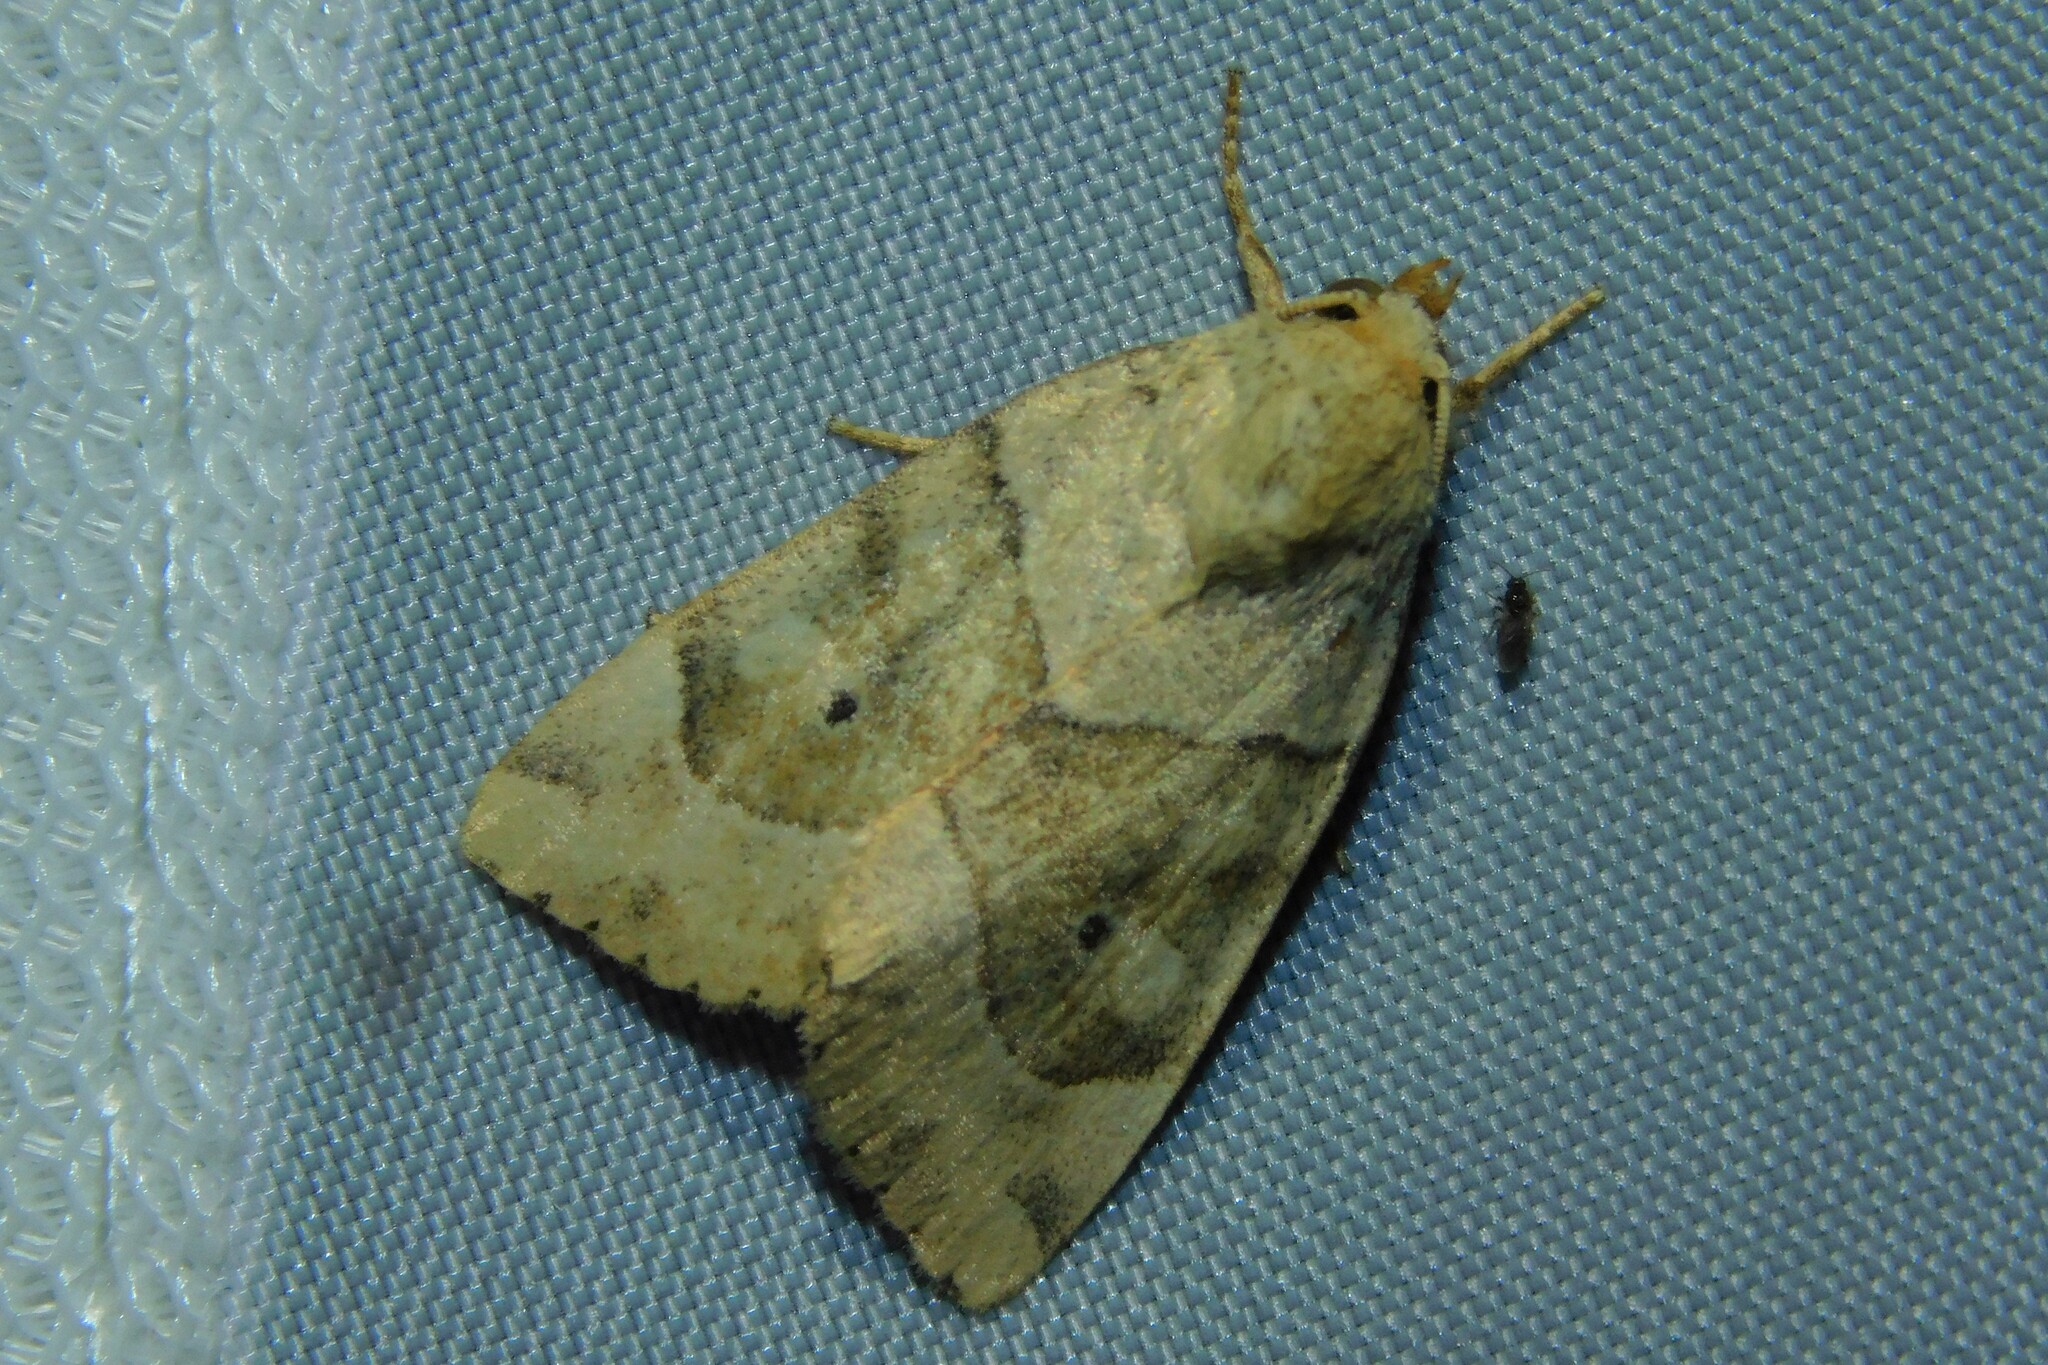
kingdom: Animalia
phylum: Arthropoda
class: Insecta
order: Lepidoptera
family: Noctuidae
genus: Cosmia
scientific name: Cosmia trapezina
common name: Dun-bar
